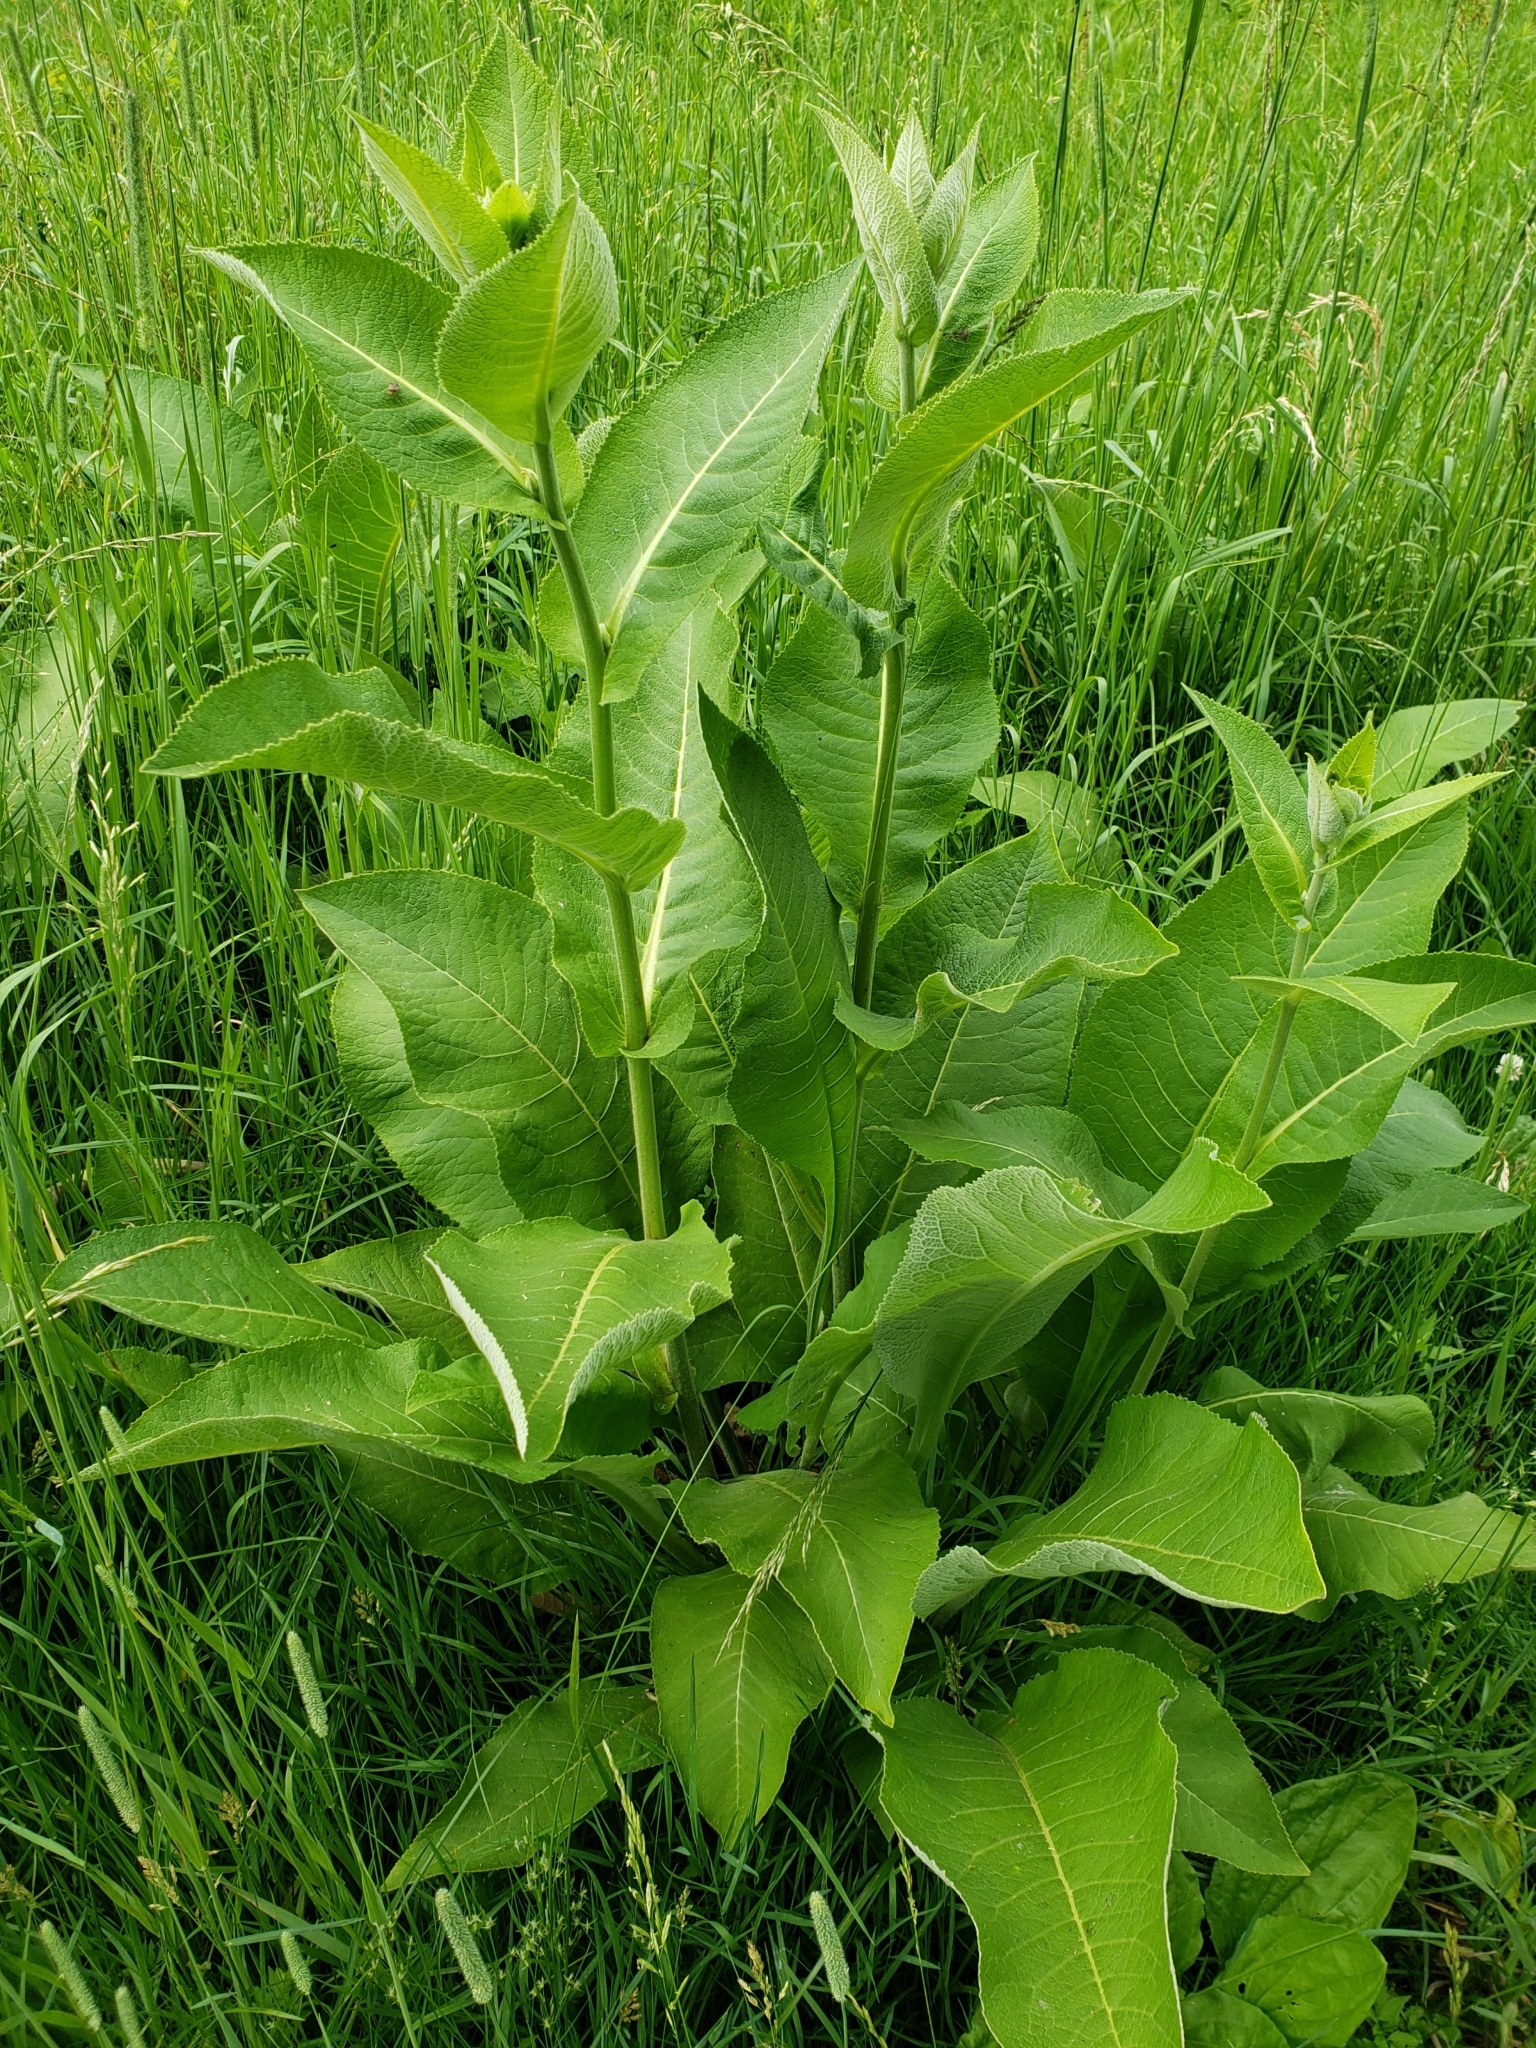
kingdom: Plantae
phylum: Tracheophyta
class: Magnoliopsida
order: Asterales
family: Asteraceae
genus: Inula
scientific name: Inula helenium
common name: Elecampane
